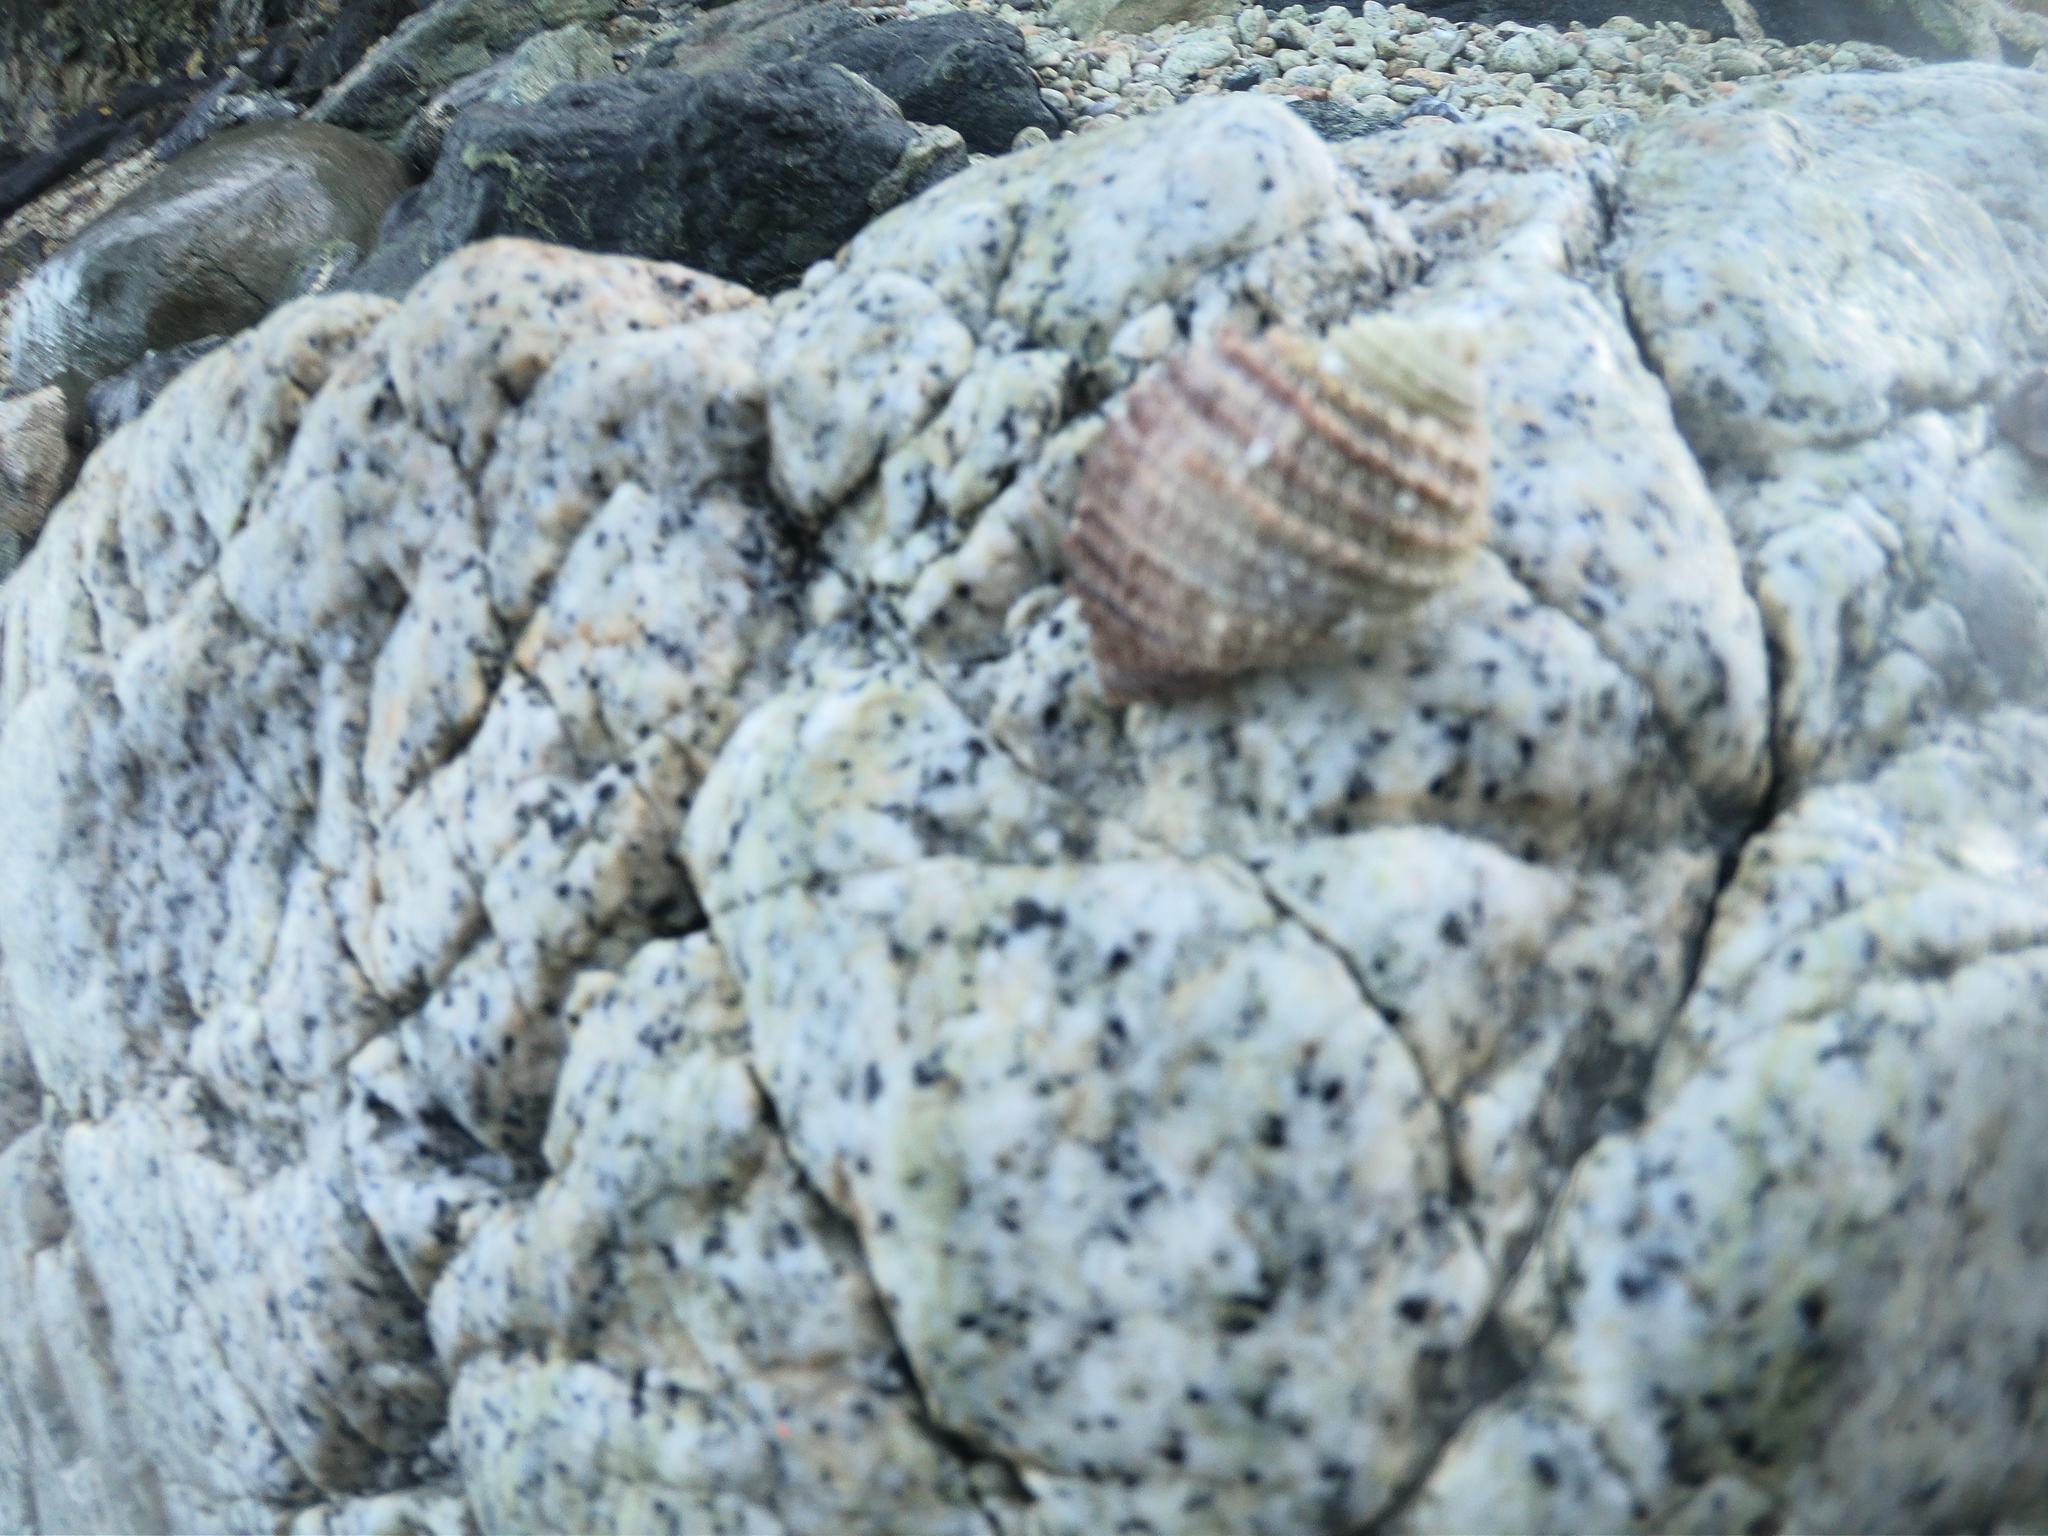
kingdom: Animalia
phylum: Mollusca
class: Gastropoda
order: Neogastropoda
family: Muricidae
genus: Acanthina
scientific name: Acanthina monodon
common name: One-toothed thais
